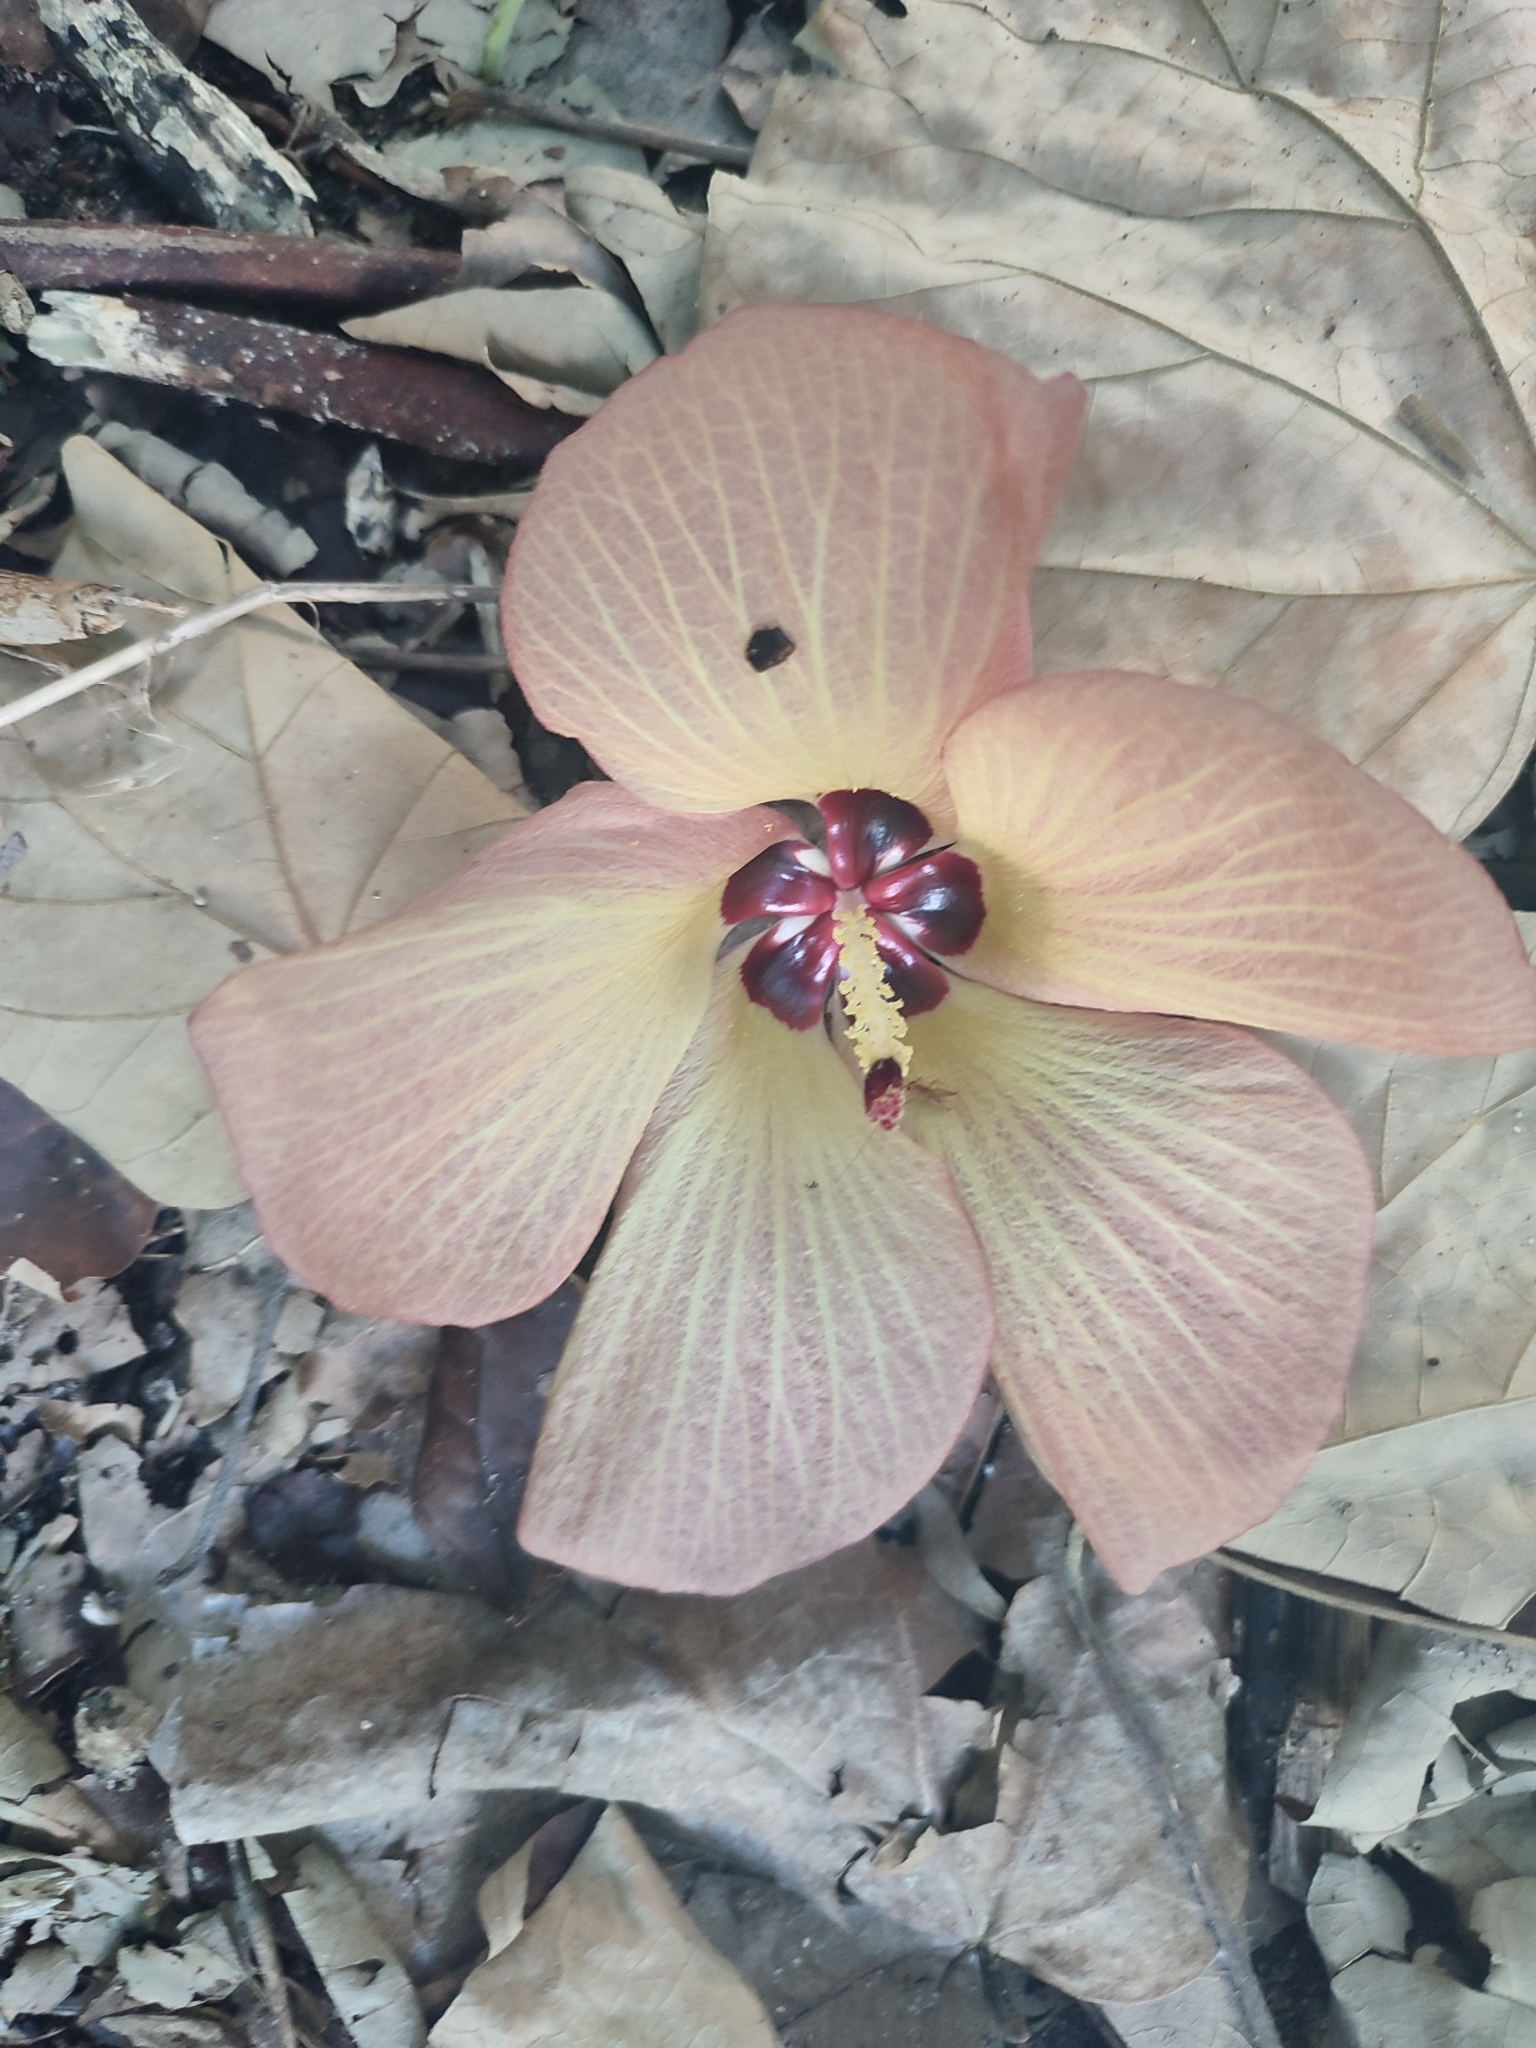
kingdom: Plantae
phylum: Tracheophyta
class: Magnoliopsida
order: Malvales
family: Malvaceae
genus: Talipariti
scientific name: Talipariti tiliaceum
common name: Sea hibiscus
